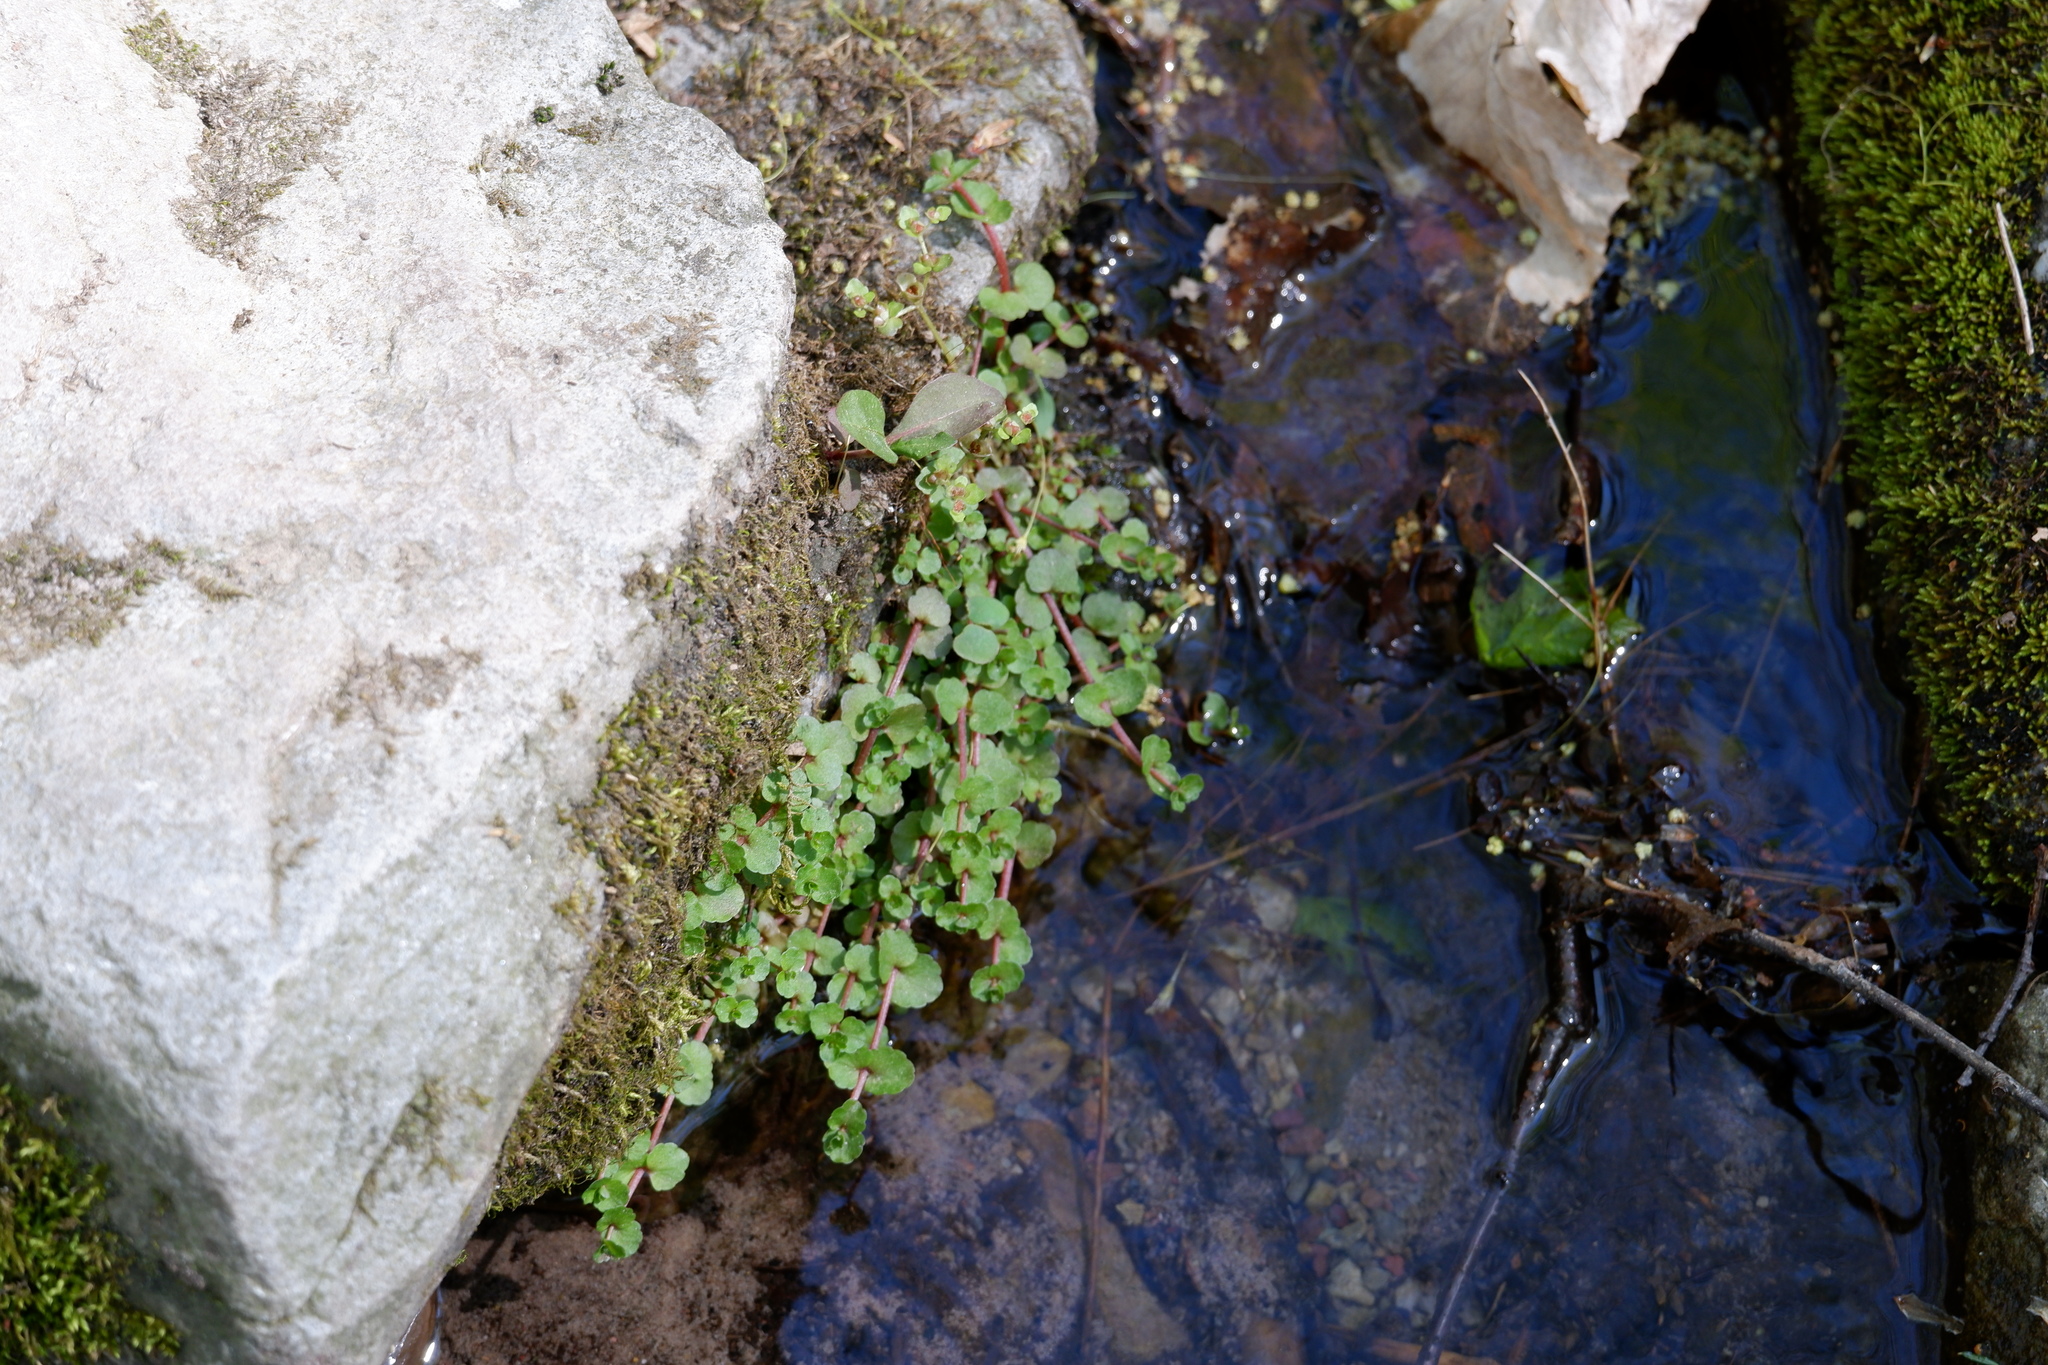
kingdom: Plantae
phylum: Tracheophyta
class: Magnoliopsida
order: Saxifragales
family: Saxifragaceae
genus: Chrysosplenium
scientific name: Chrysosplenium americanum
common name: American golden-saxifrage
